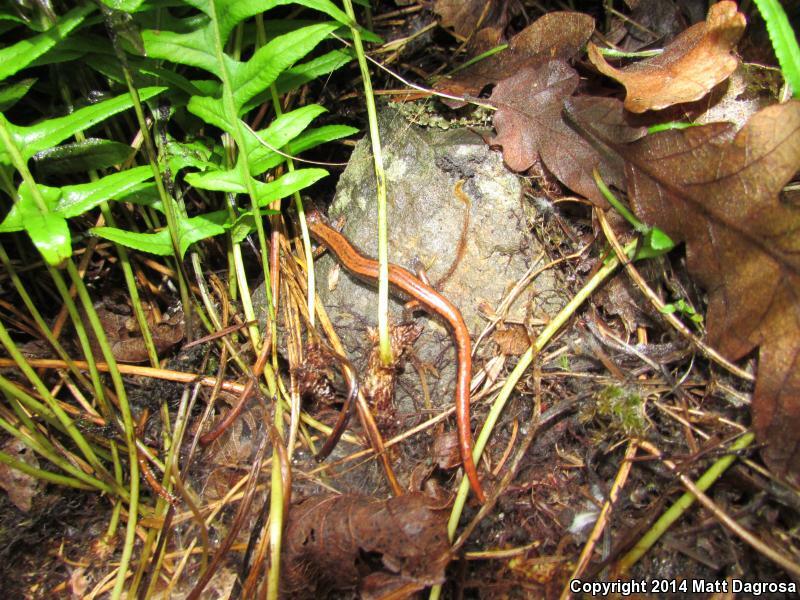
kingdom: Animalia
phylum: Chordata
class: Amphibia
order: Caudata
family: Plethodontidae
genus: Plethodon
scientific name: Plethodon vehiculum
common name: Western red-backed salamander
